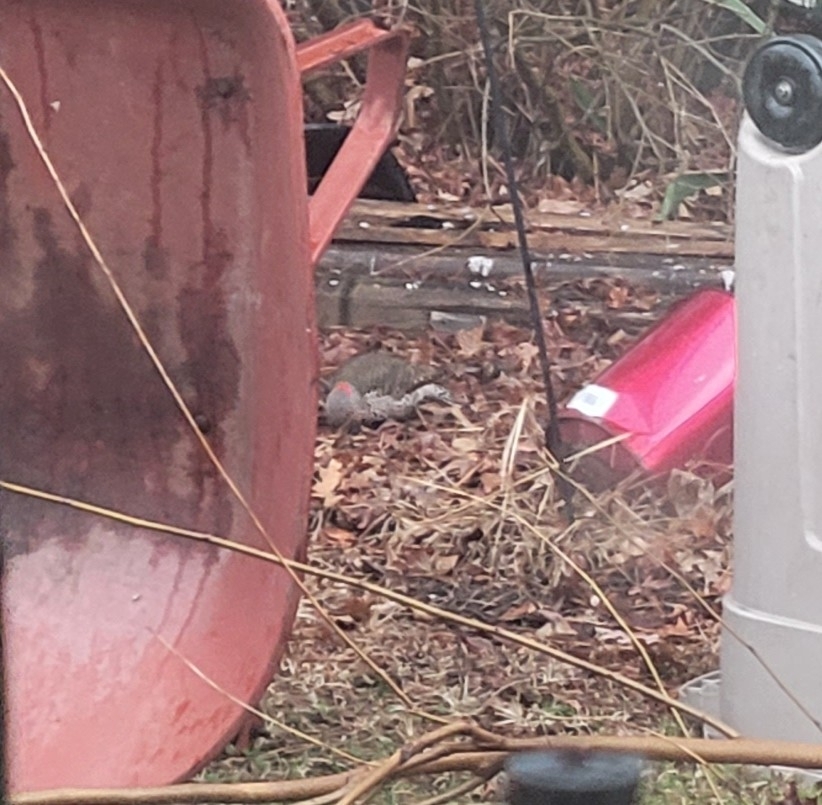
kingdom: Animalia
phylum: Chordata
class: Aves
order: Piciformes
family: Picidae
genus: Colaptes
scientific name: Colaptes auratus
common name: Northern flicker
